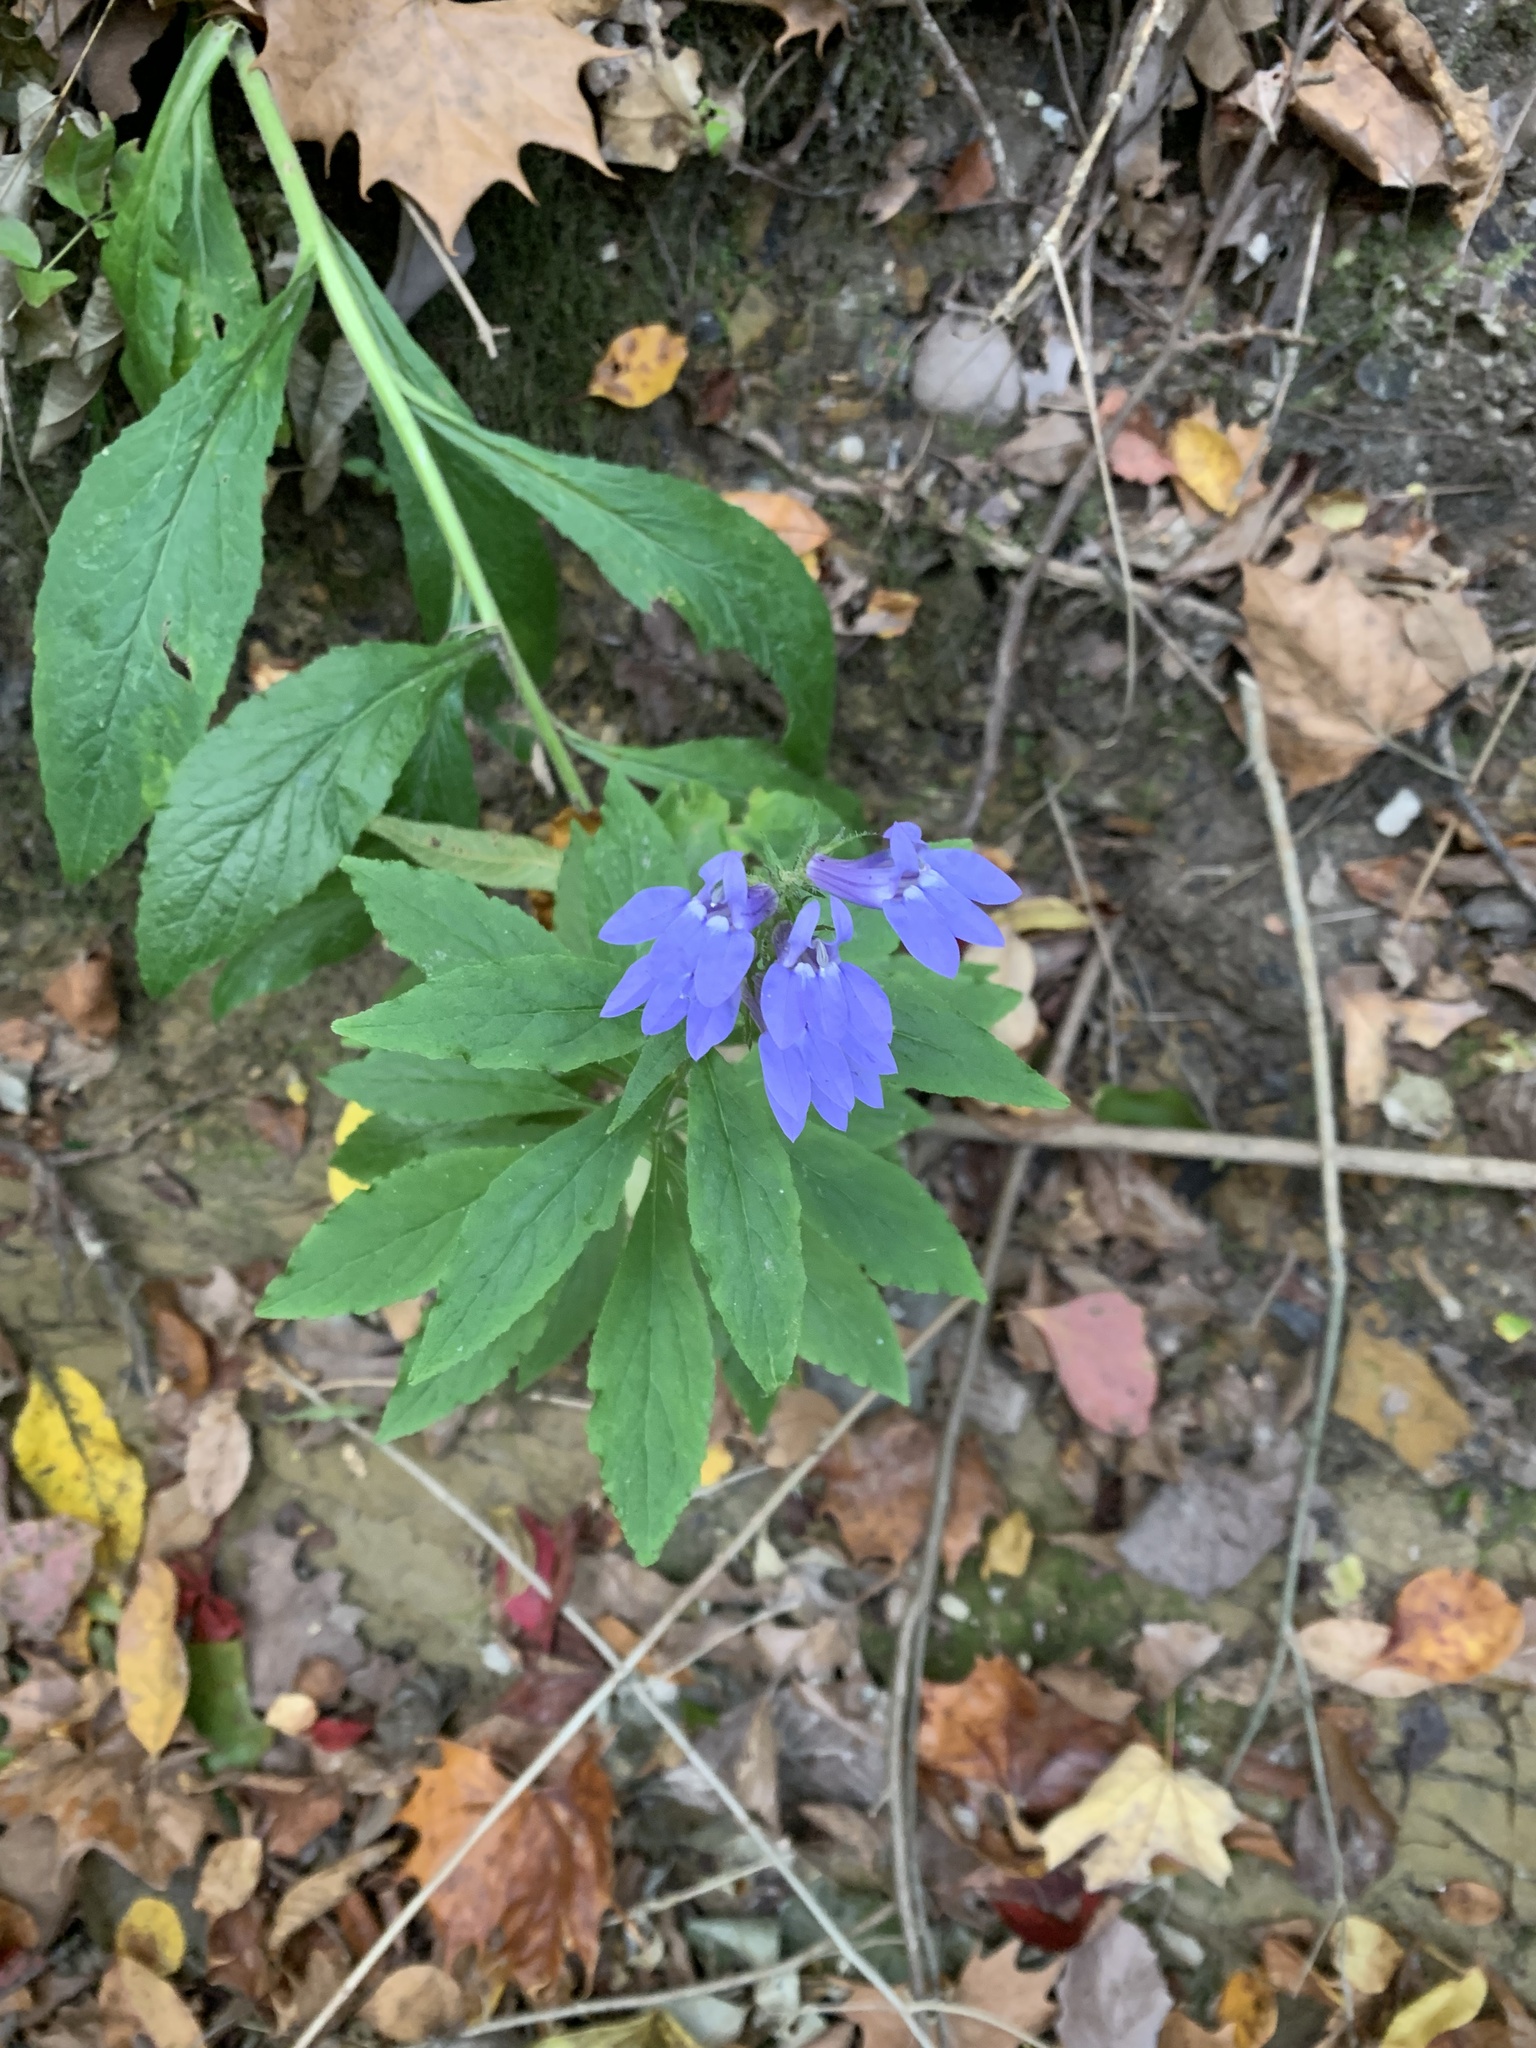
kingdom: Plantae
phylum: Tracheophyta
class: Magnoliopsida
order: Asterales
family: Campanulaceae
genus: Lobelia
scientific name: Lobelia siphilitica
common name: Great lobelia
